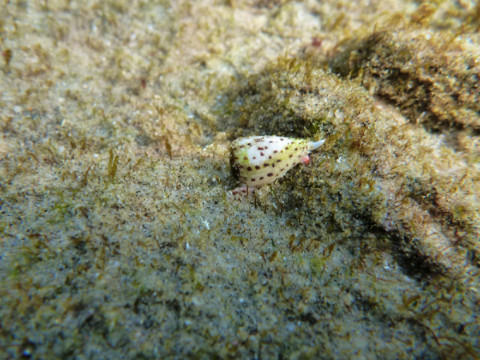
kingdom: Animalia
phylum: Mollusca
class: Gastropoda
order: Neogastropoda
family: Conidae
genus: Conus
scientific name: Conus parvatus
